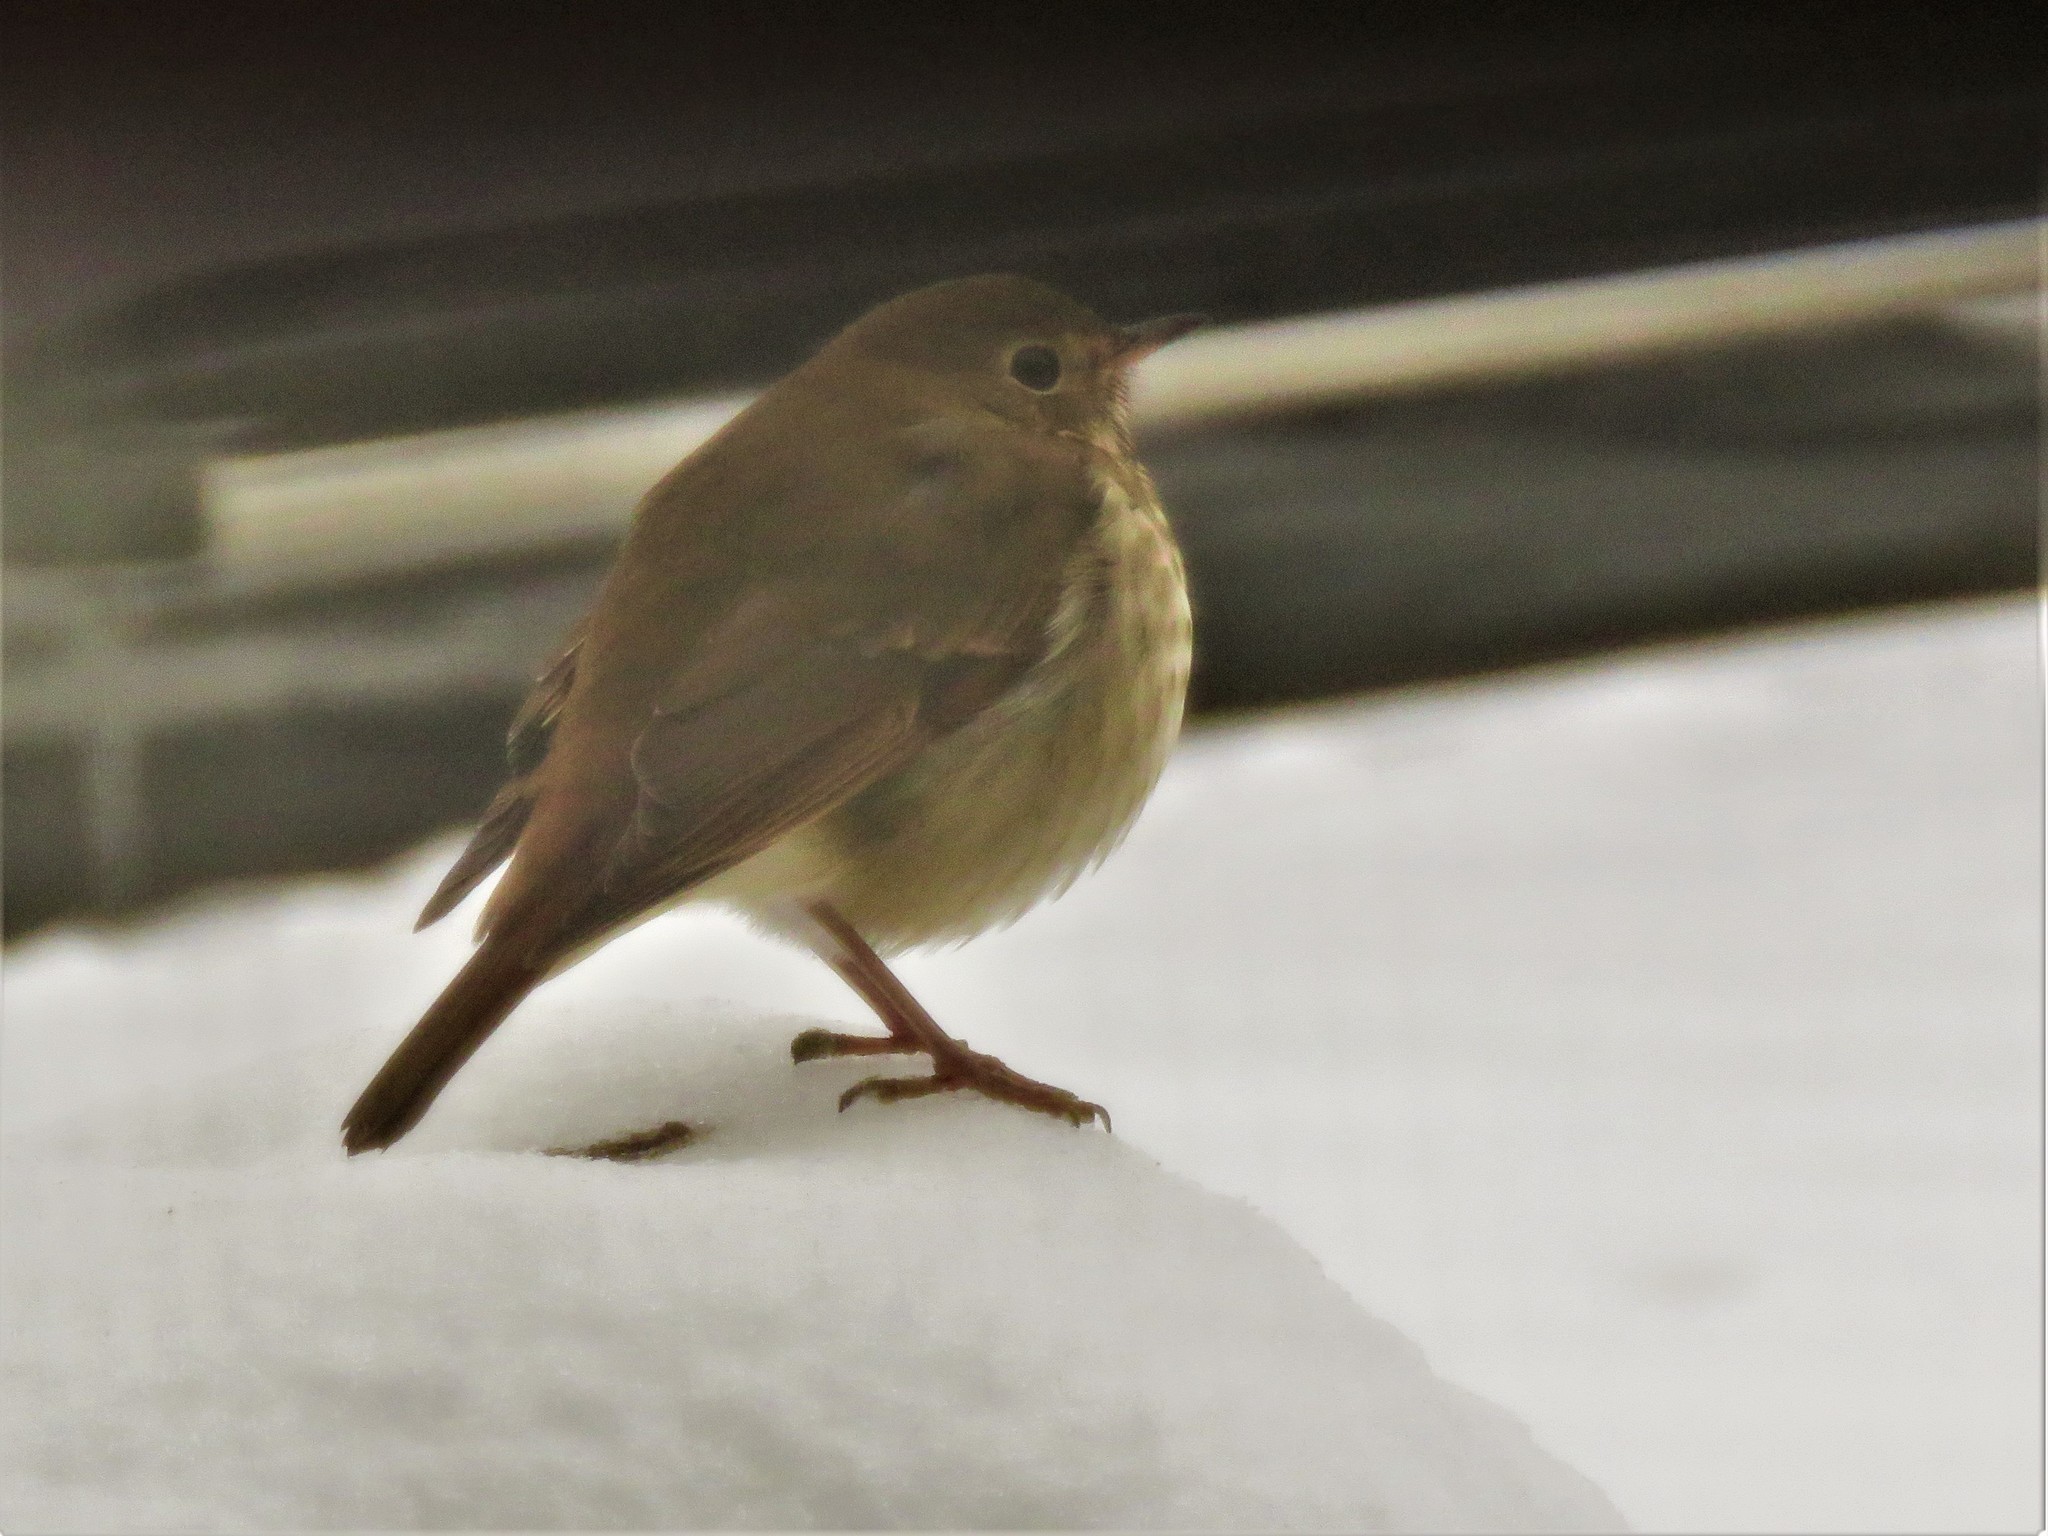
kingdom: Animalia
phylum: Chordata
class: Aves
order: Passeriformes
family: Turdidae
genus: Catharus
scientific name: Catharus guttatus
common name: Hermit thrush
